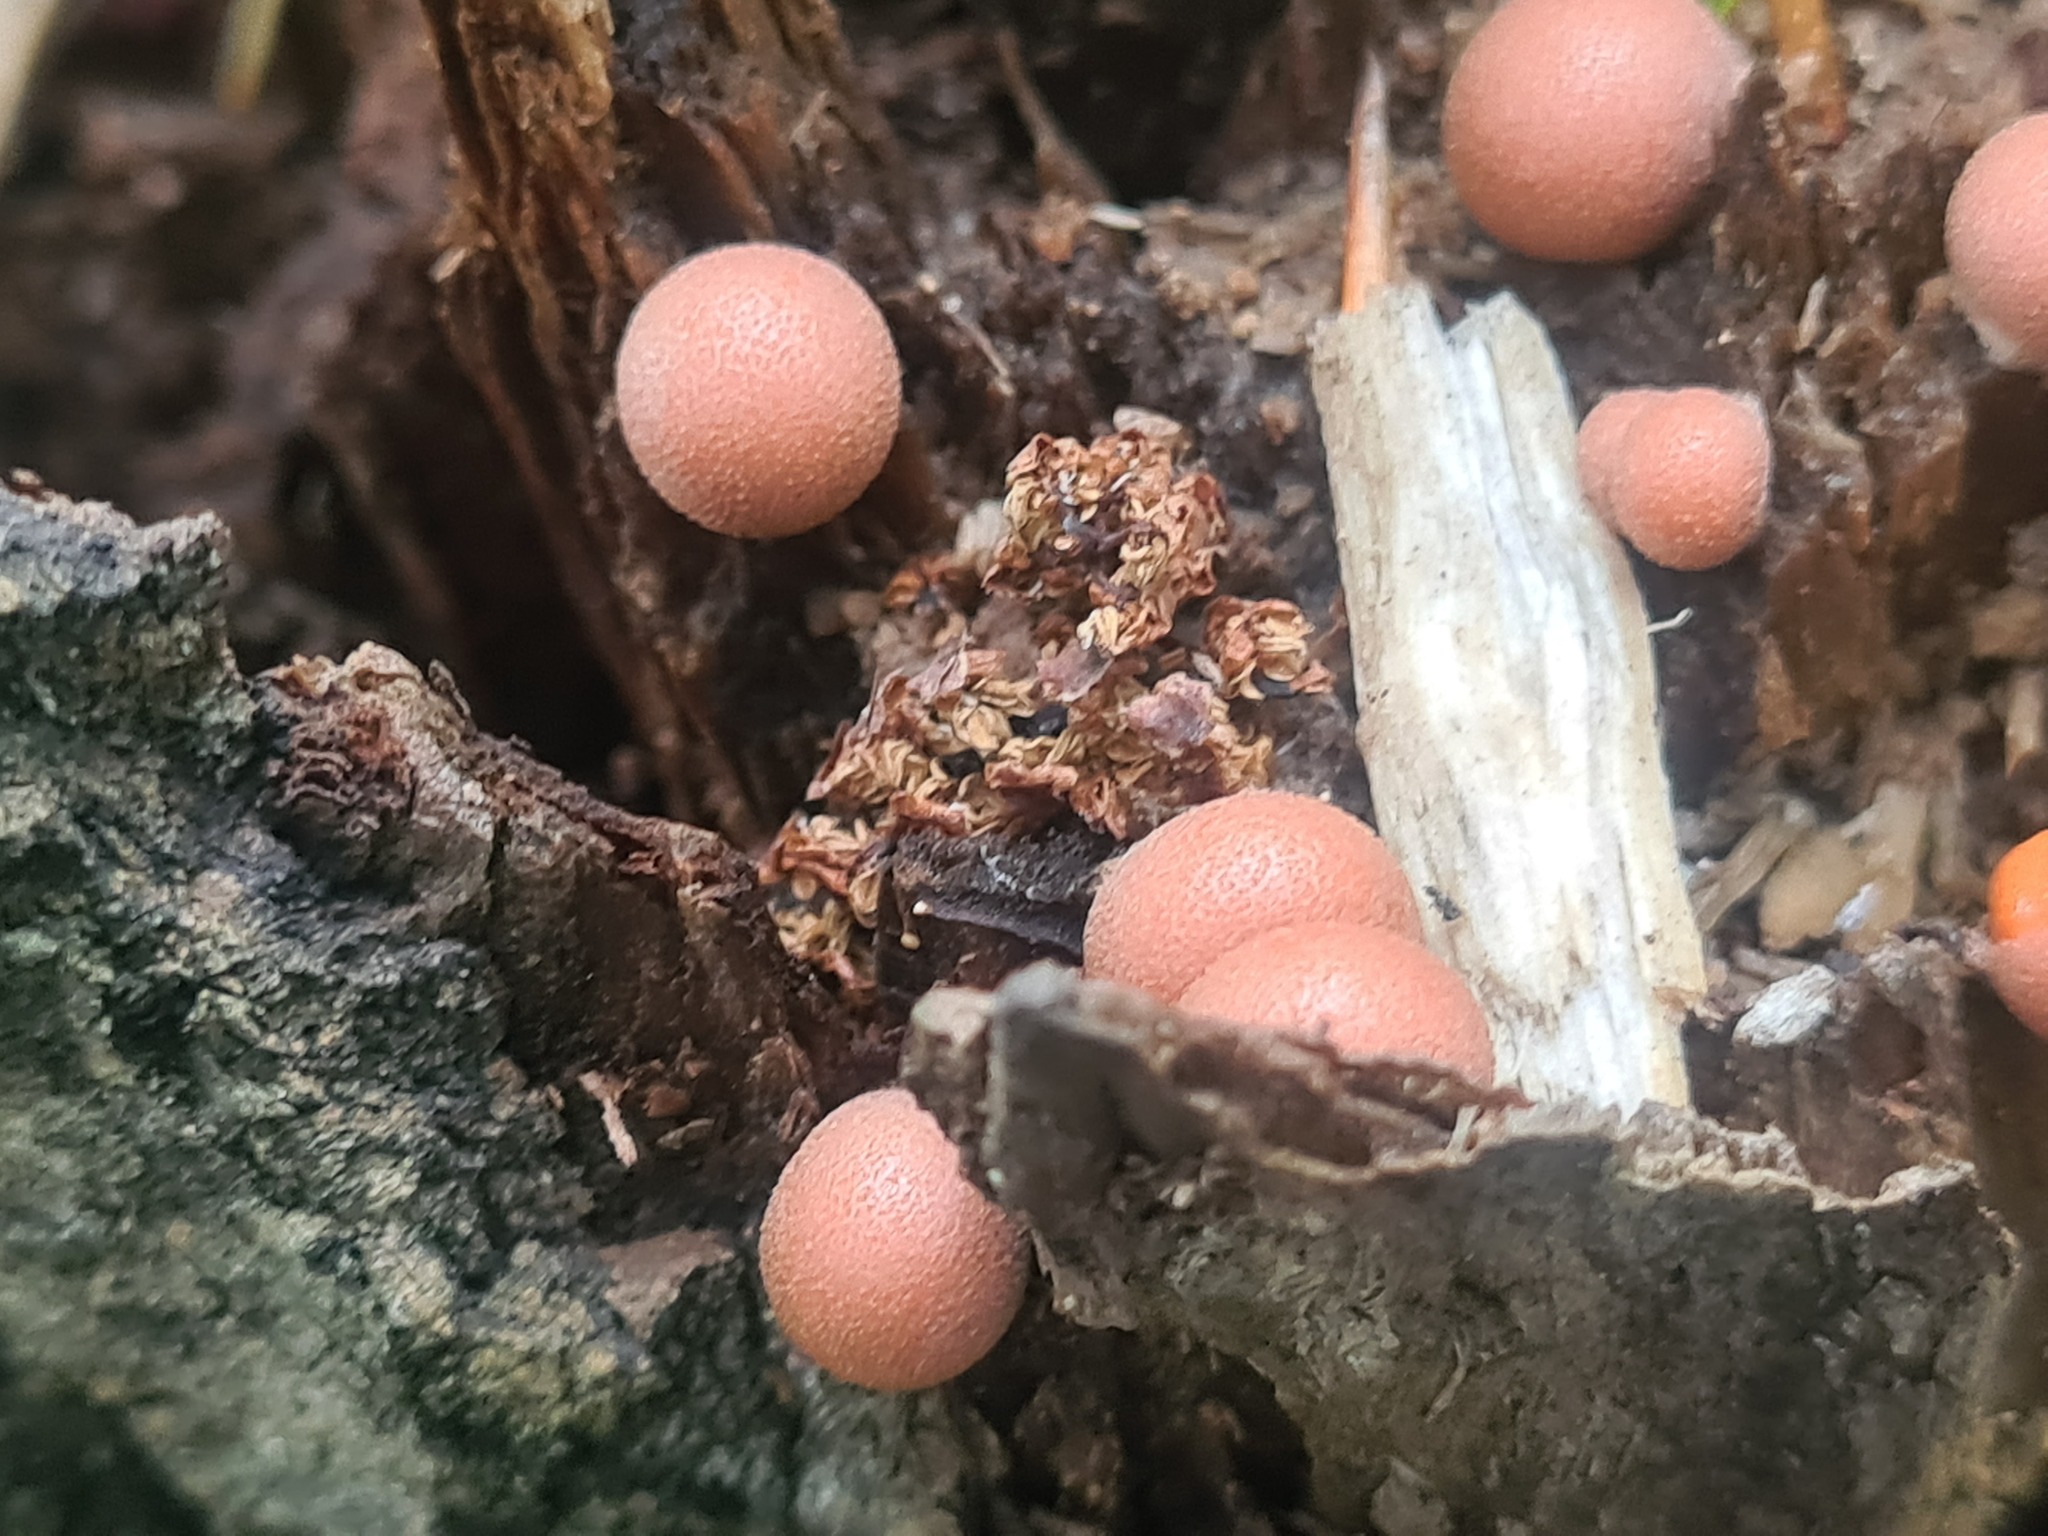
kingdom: Protozoa
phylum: Mycetozoa
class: Myxomycetes
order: Cribrariales
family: Tubiferaceae
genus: Lycogala
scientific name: Lycogala epidendrum
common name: Wolf's milk
